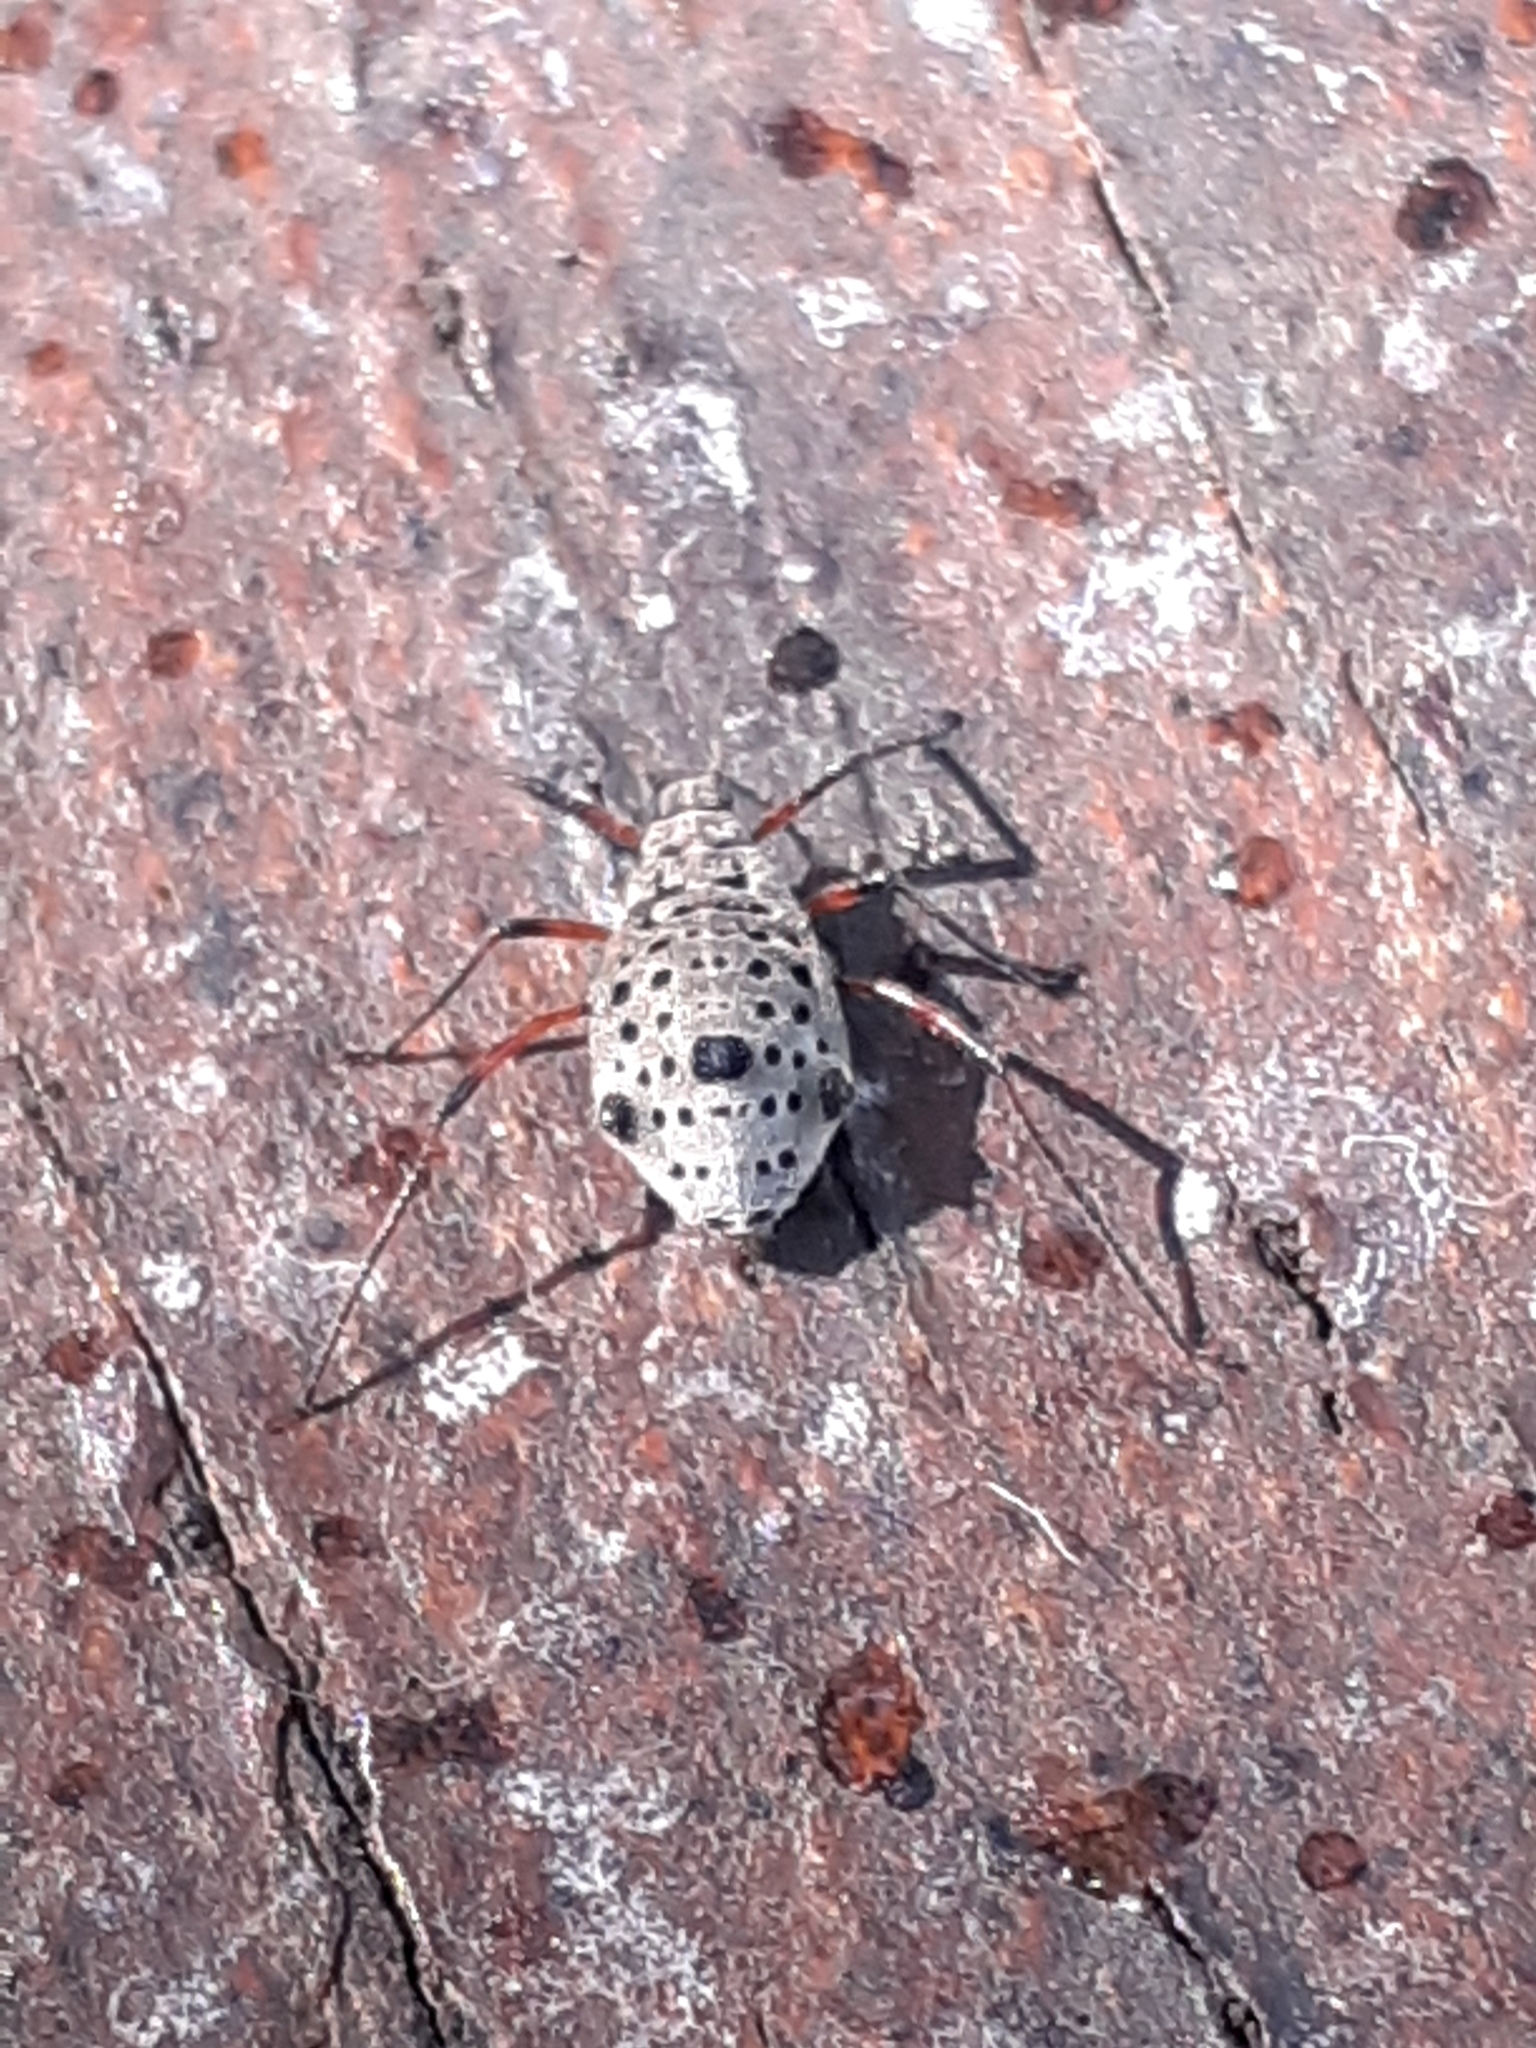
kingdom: Animalia
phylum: Arthropoda
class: Insecta
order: Hemiptera
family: Aphididae
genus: Tuberolachnus
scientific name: Tuberolachnus salignus
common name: Giant willow aphid
